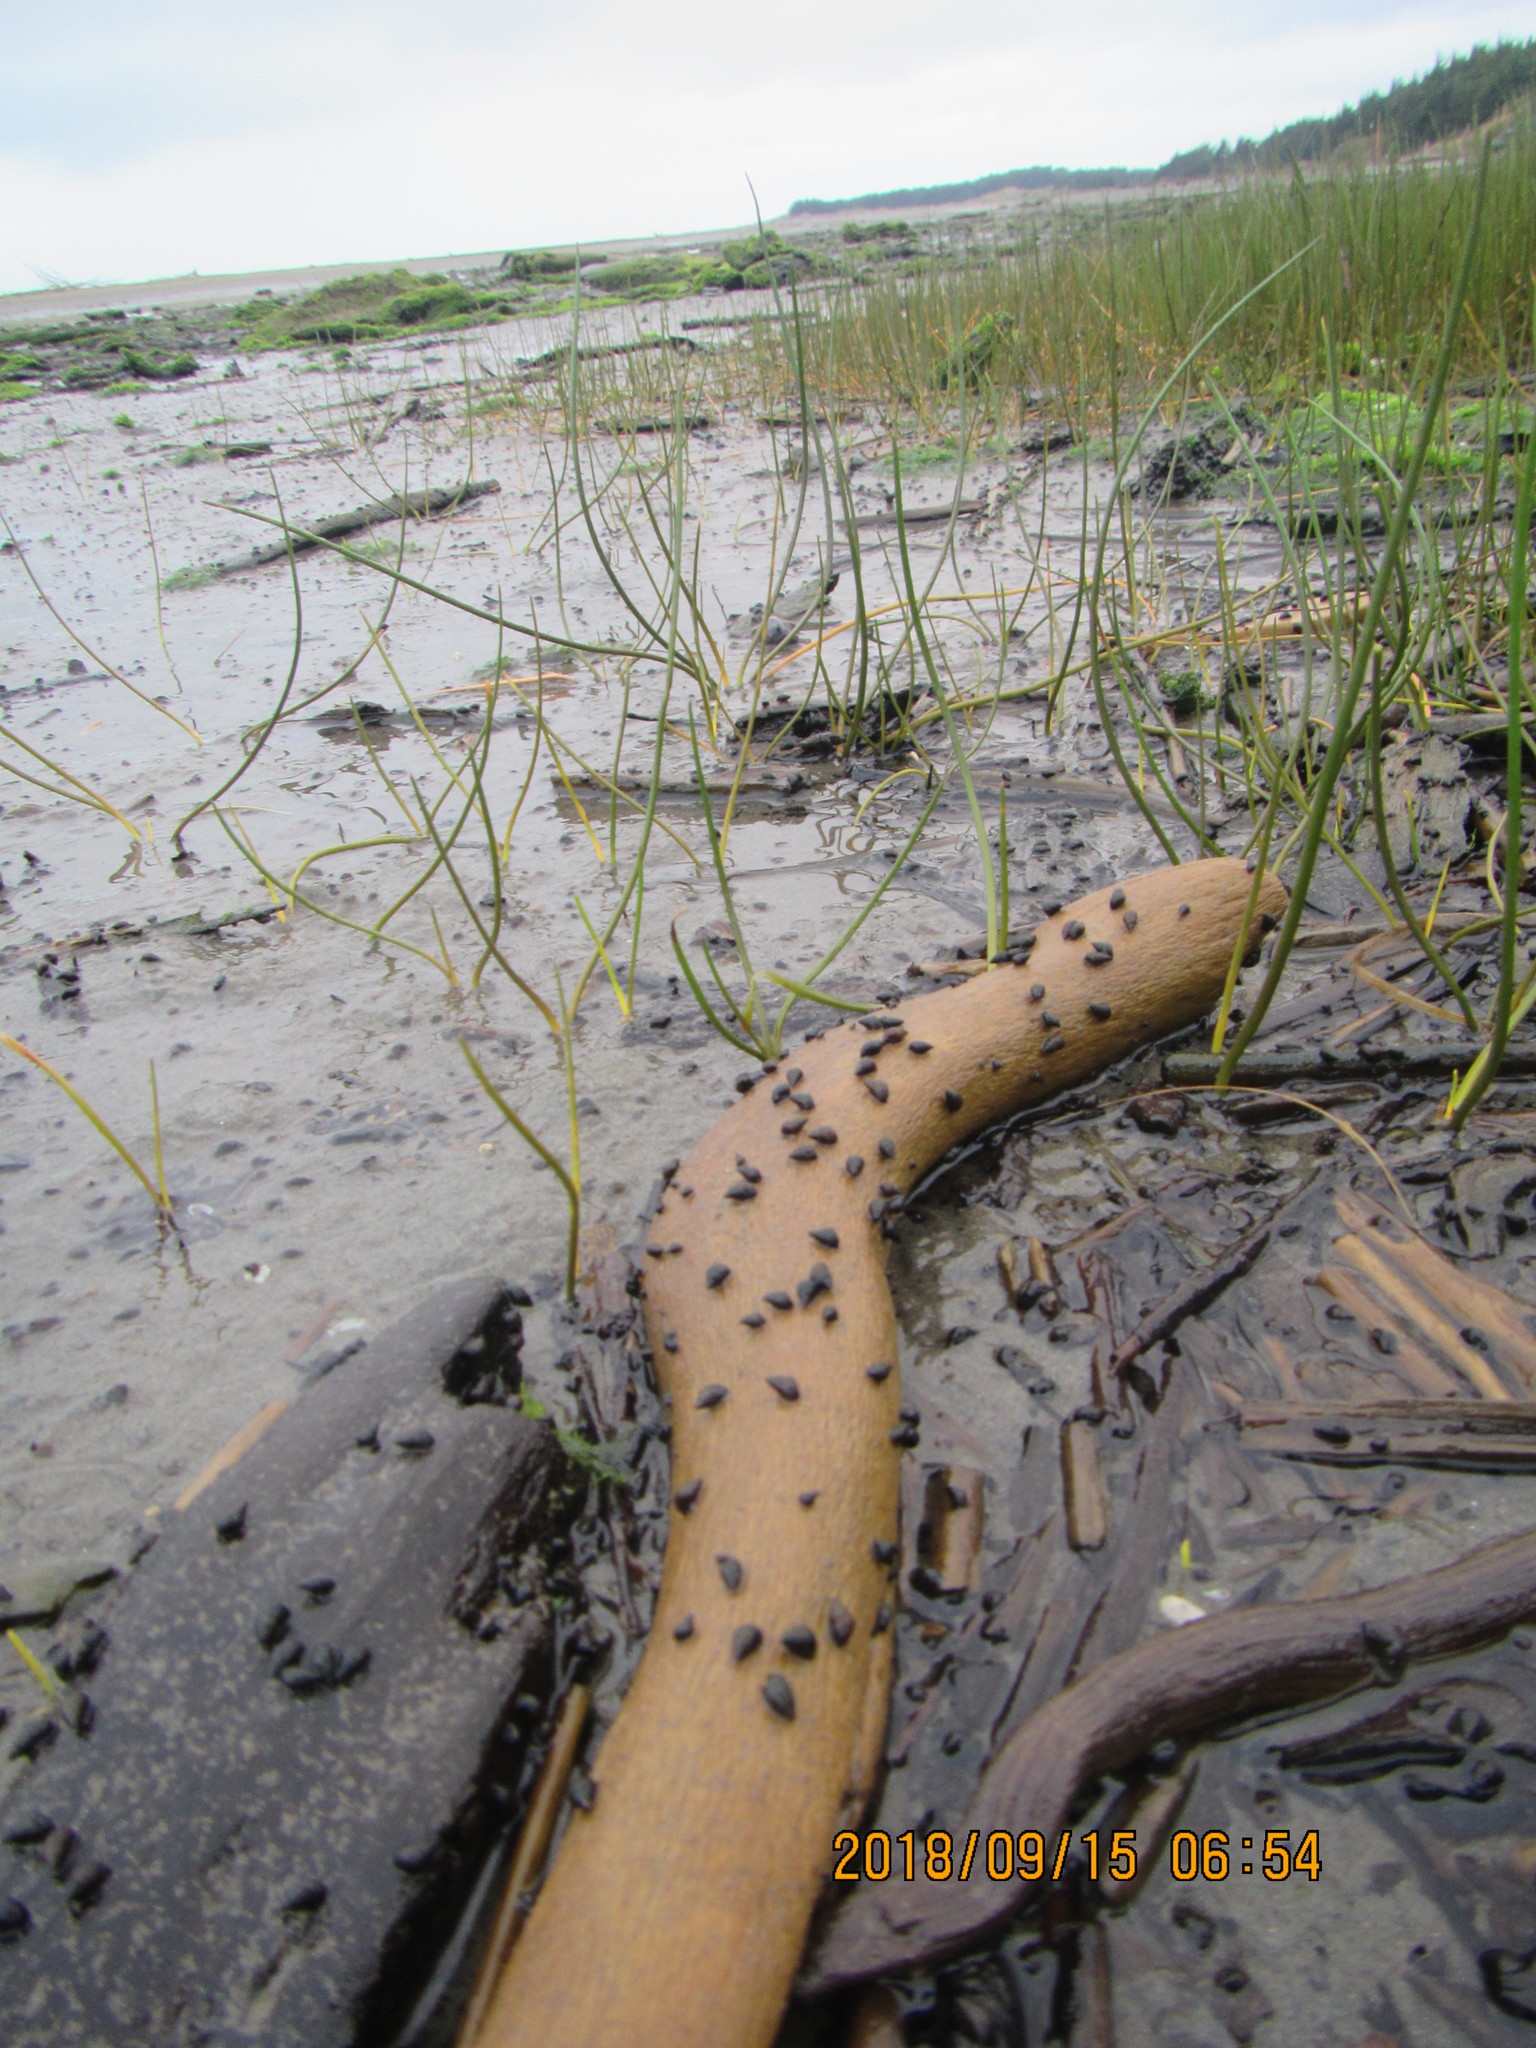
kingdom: Animalia
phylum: Mollusca
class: Gastropoda
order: Littorinimorpha
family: Tateidae
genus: Potamopyrgus
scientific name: Potamopyrgus estuarinus
